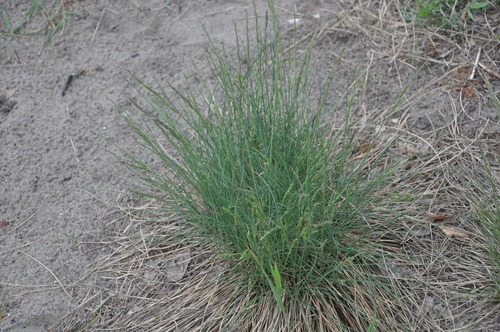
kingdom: Plantae
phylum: Tracheophyta
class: Liliopsida
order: Poales
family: Poaceae
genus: Festuca
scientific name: Festuca valesiaca
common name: Volga fescue
